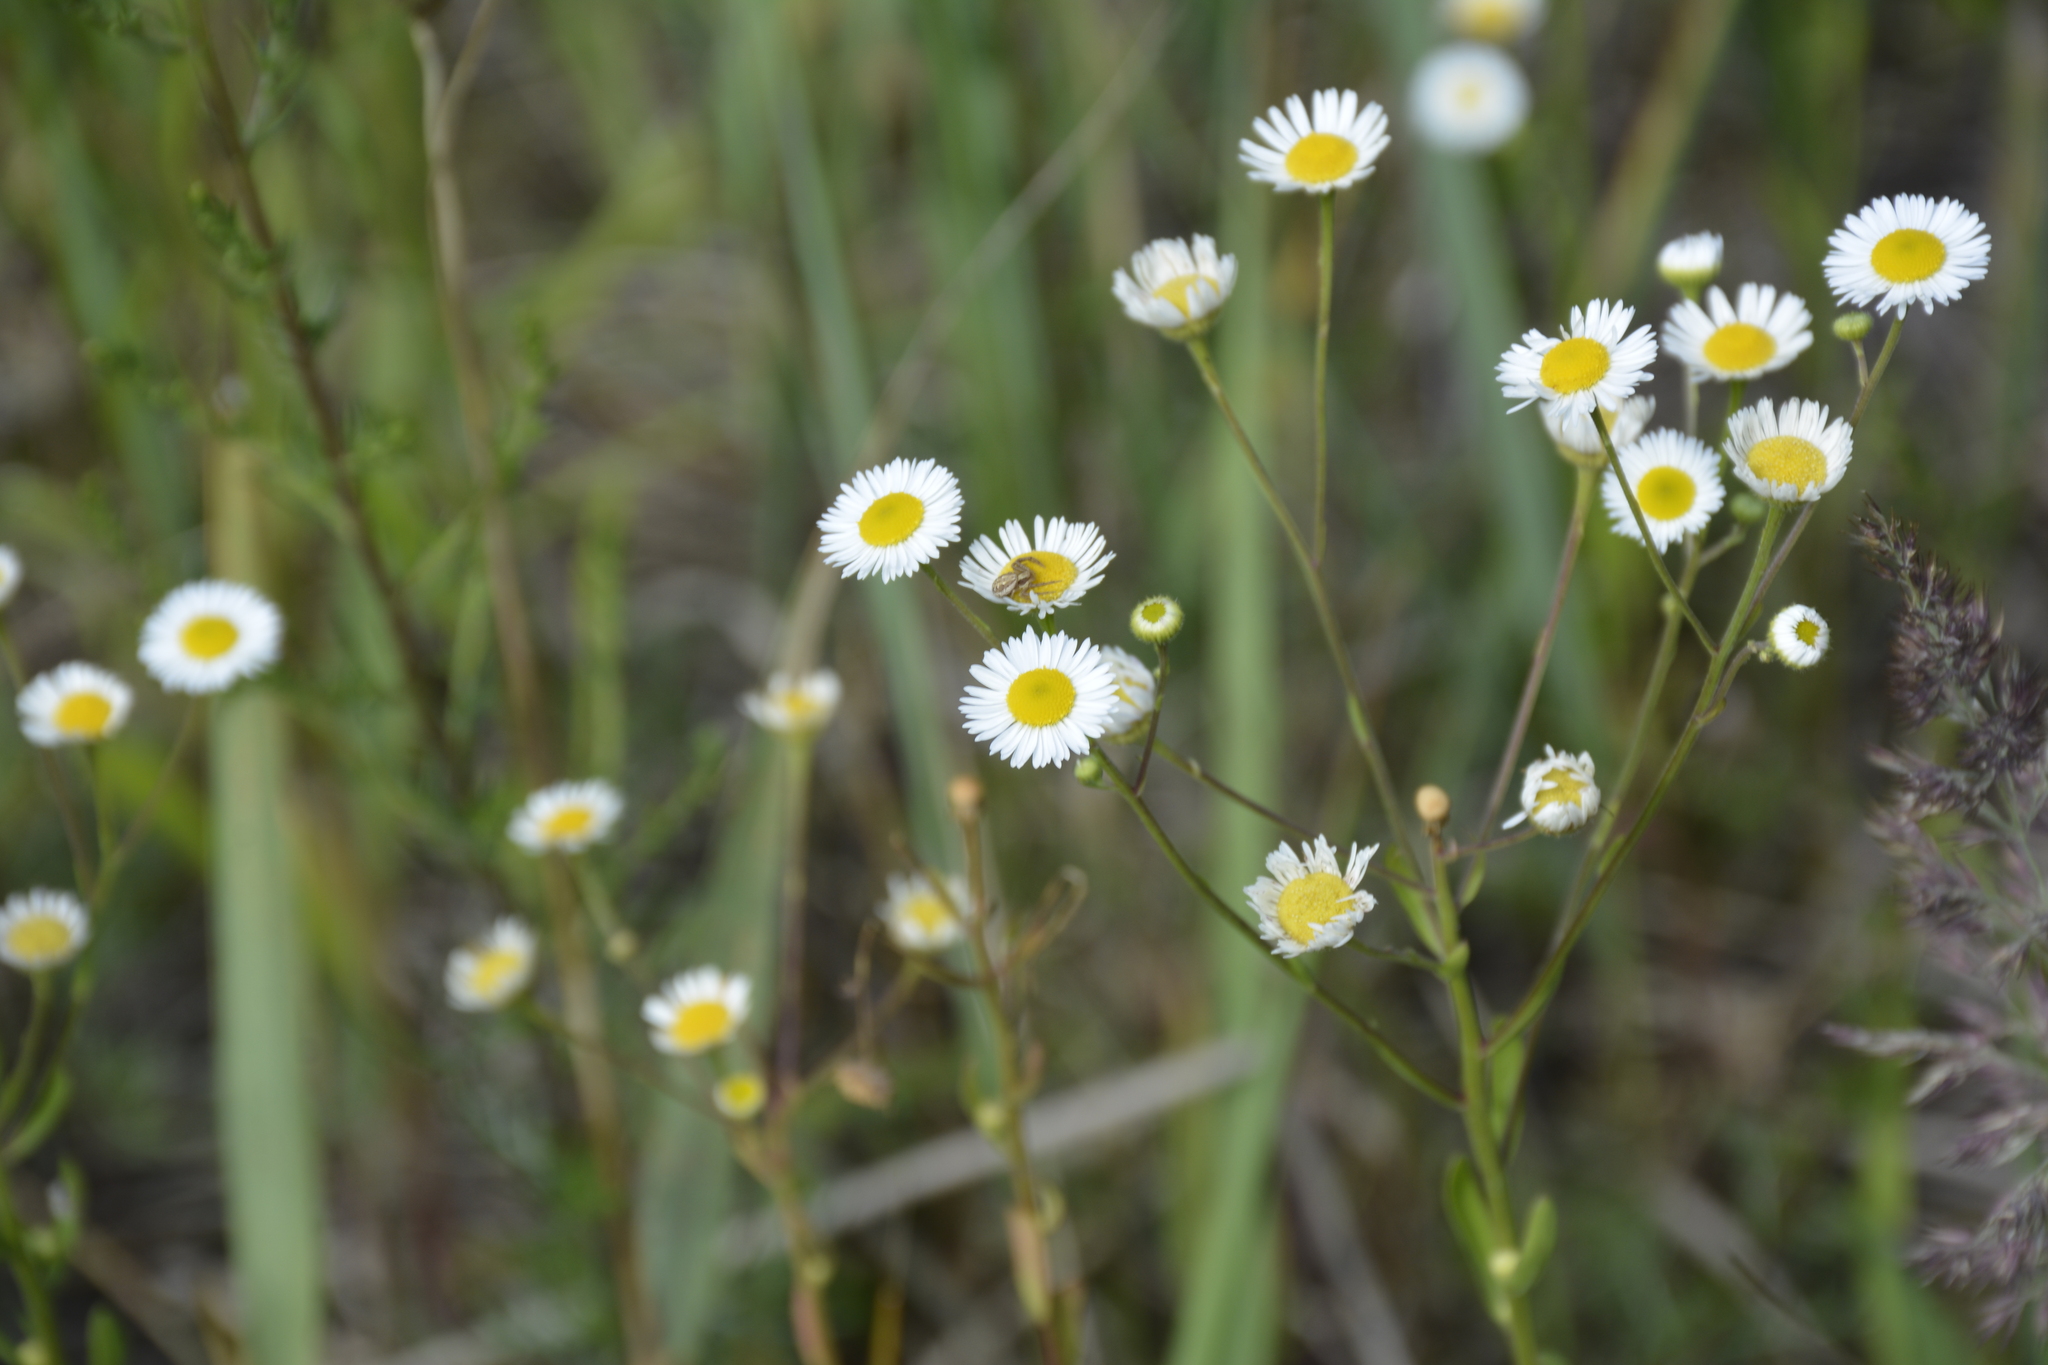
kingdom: Plantae
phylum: Tracheophyta
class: Magnoliopsida
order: Asterales
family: Asteraceae
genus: Erigeron
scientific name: Erigeron strigosus
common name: Common eastern fleabane
